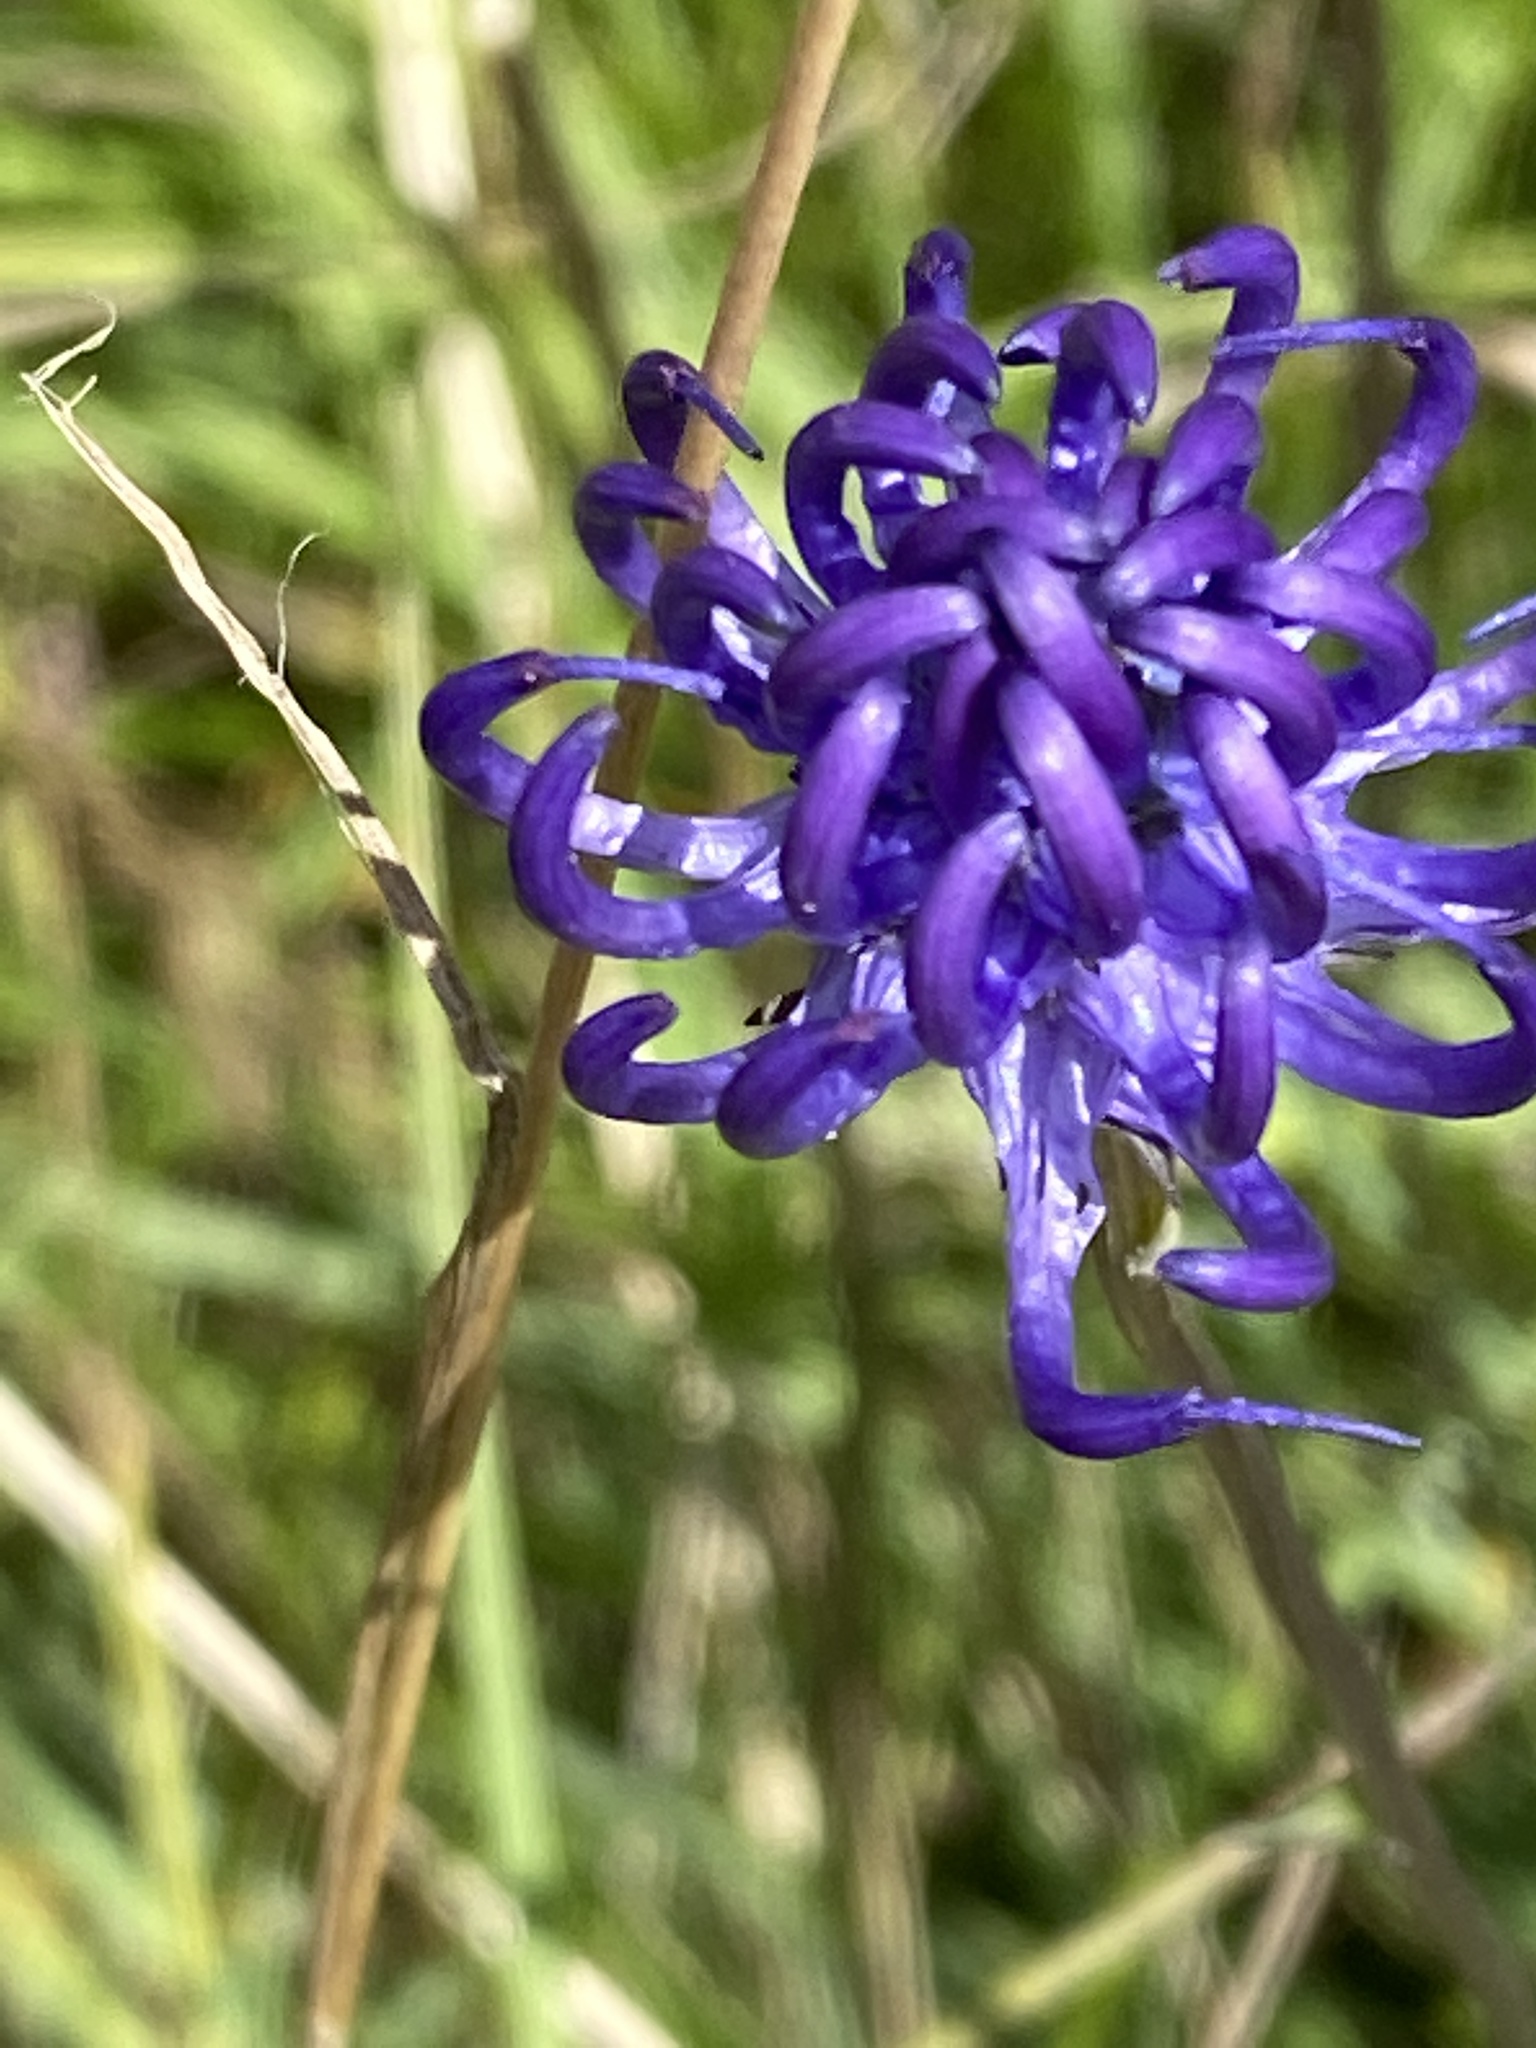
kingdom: Plantae
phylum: Tracheophyta
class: Magnoliopsida
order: Asterales
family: Campanulaceae
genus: Phyteuma
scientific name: Phyteuma orbiculare
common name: Round-headed rampion
